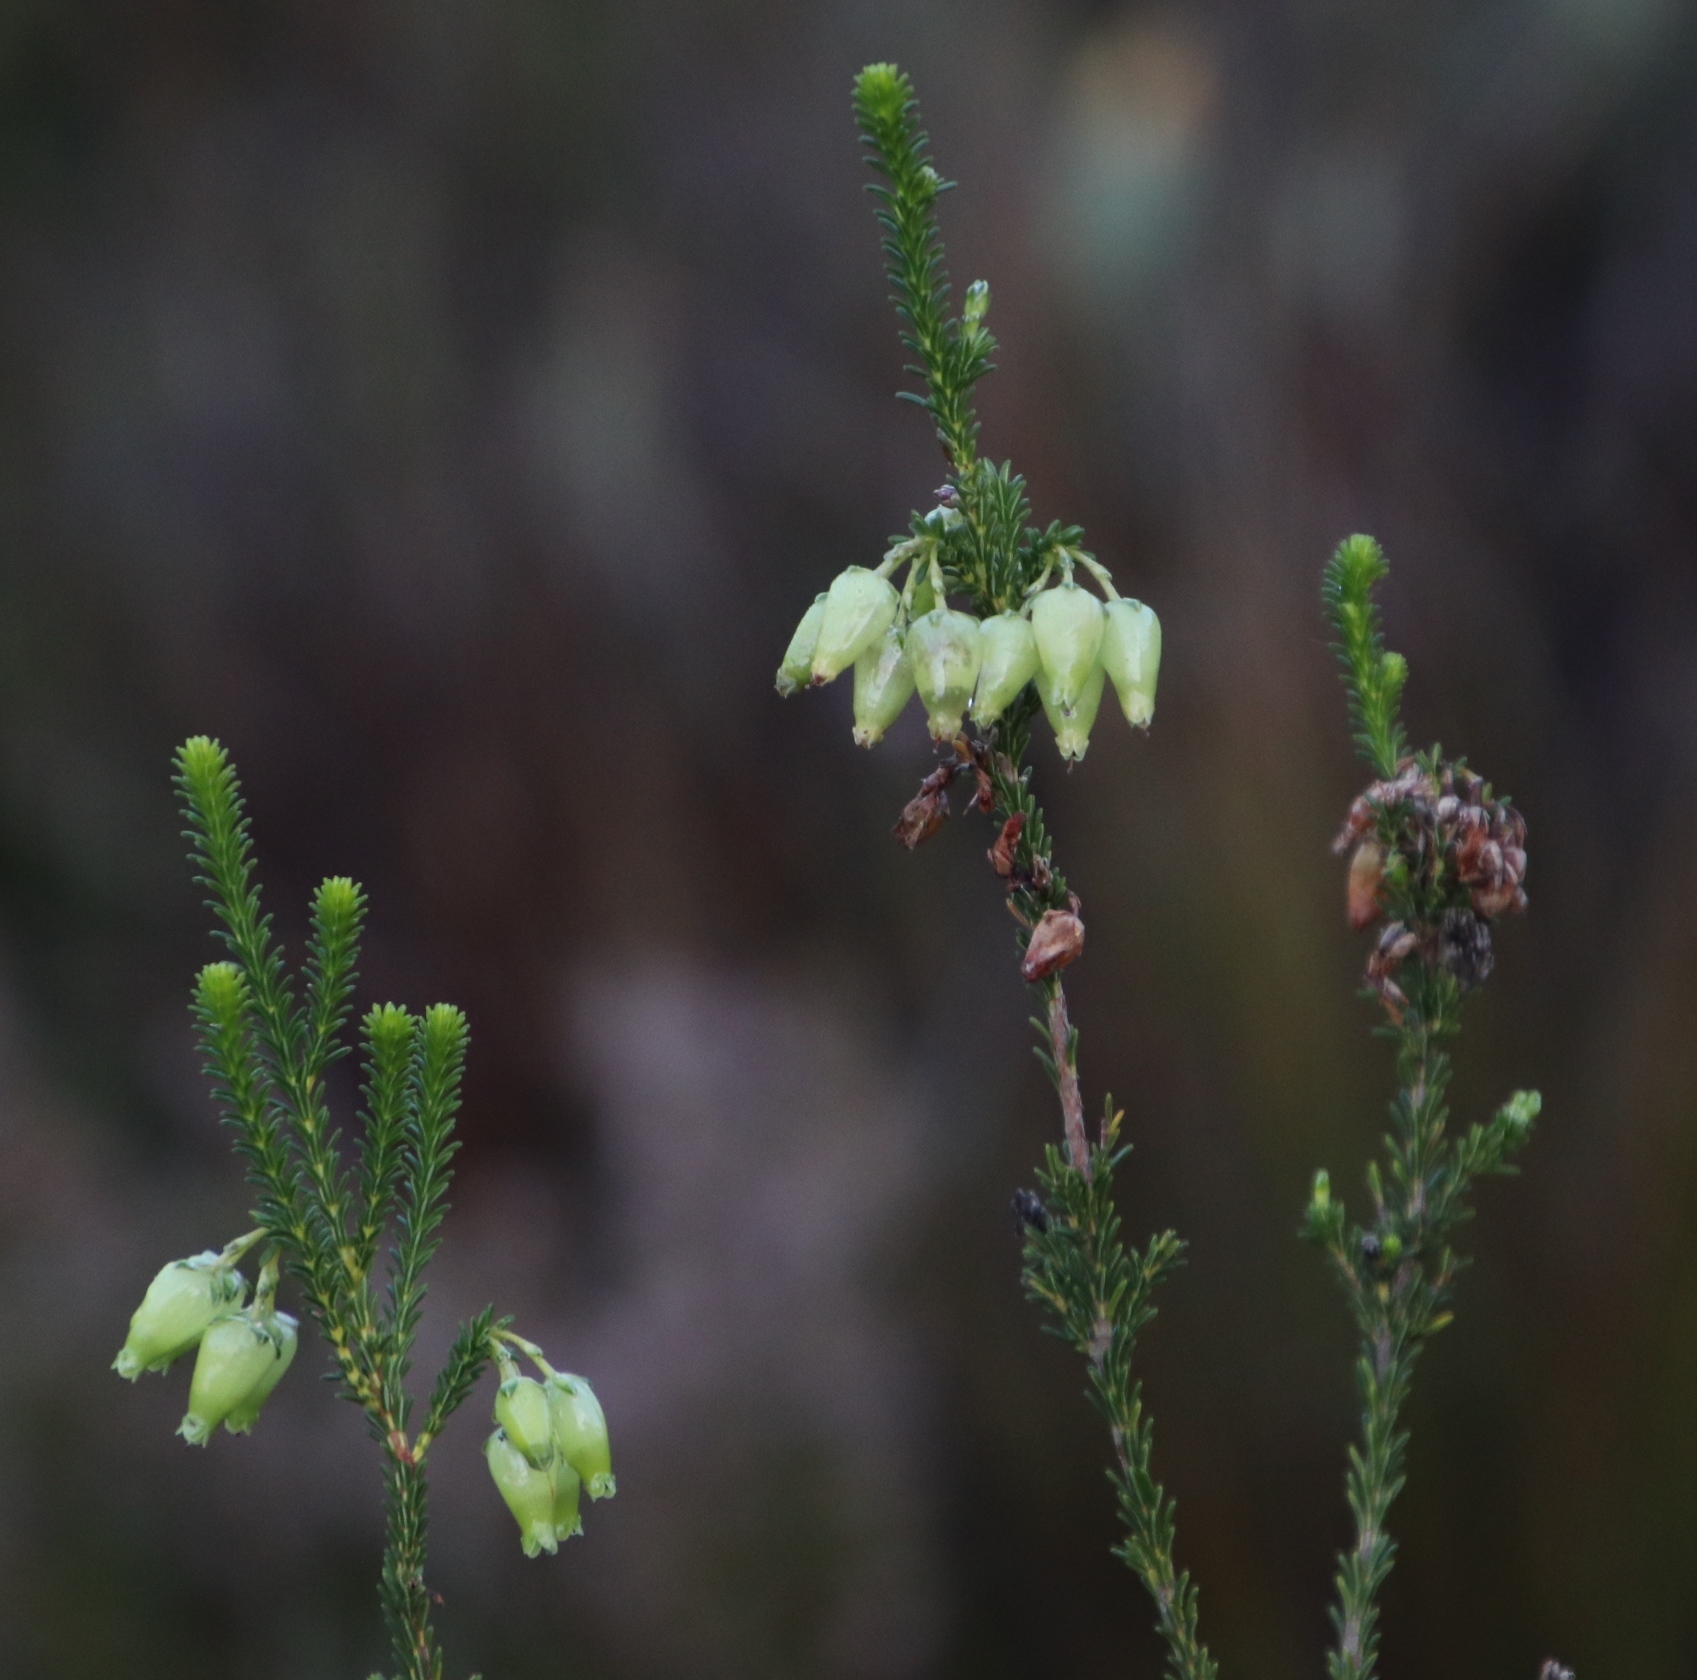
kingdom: Plantae
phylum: Tracheophyta
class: Magnoliopsida
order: Ericales
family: Ericaceae
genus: Erica
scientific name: Erica urna-viridis
